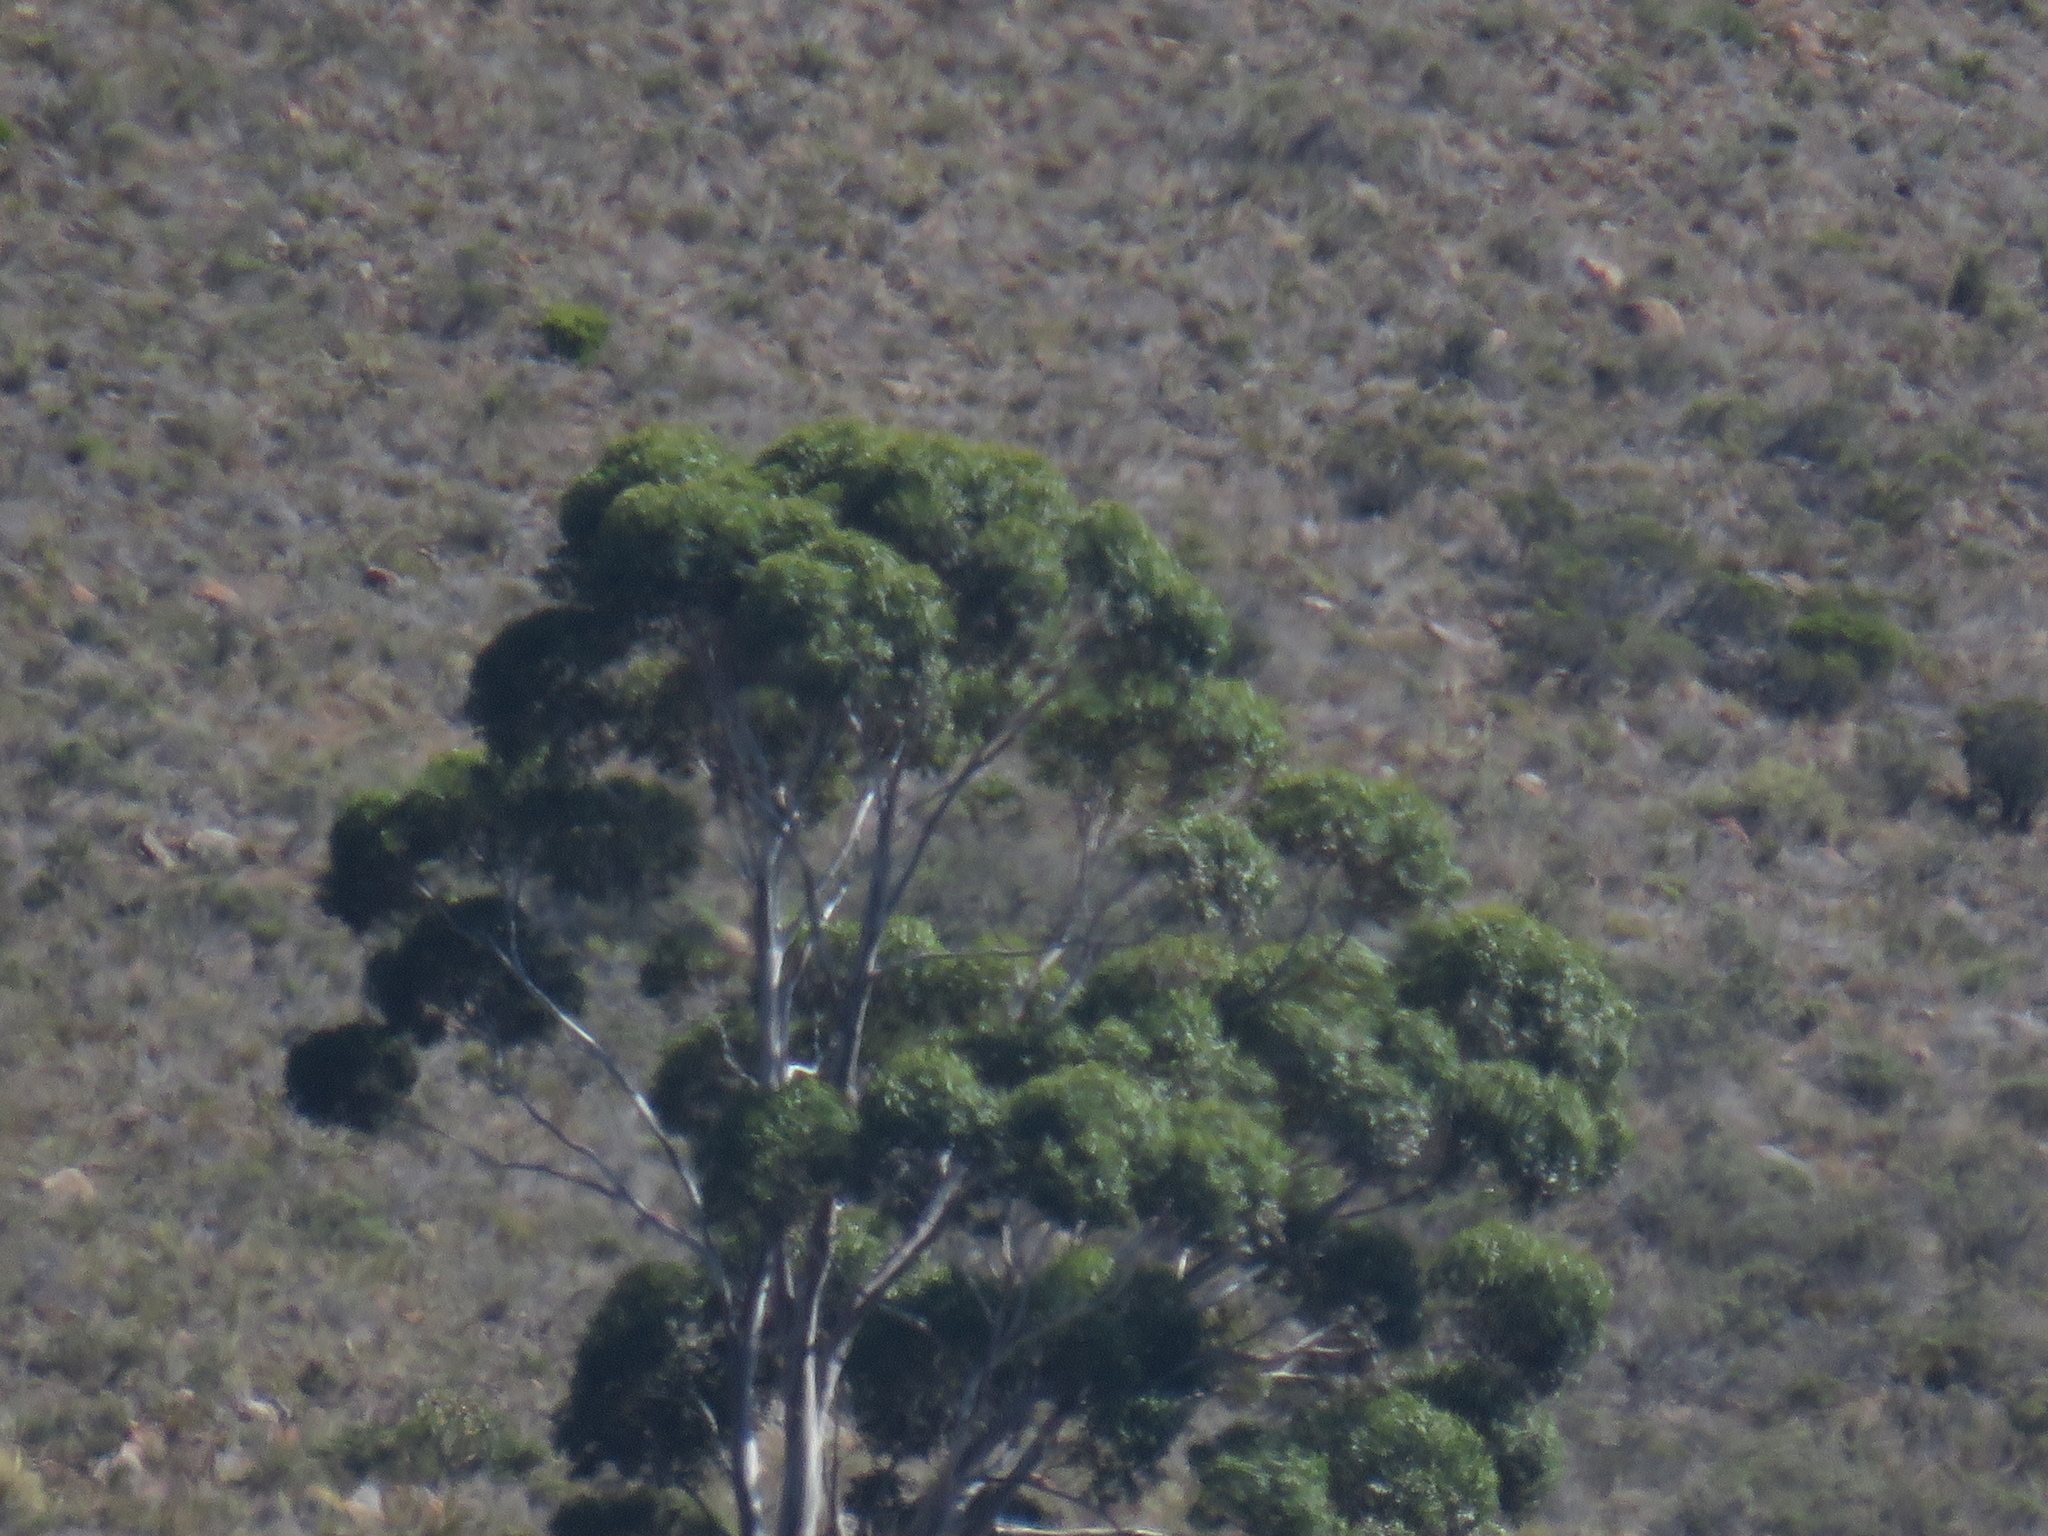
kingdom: Plantae
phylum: Tracheophyta
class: Magnoliopsida
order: Myrtales
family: Myrtaceae
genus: Eucalyptus
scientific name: Eucalyptus cladocalyx
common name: Sugargum
